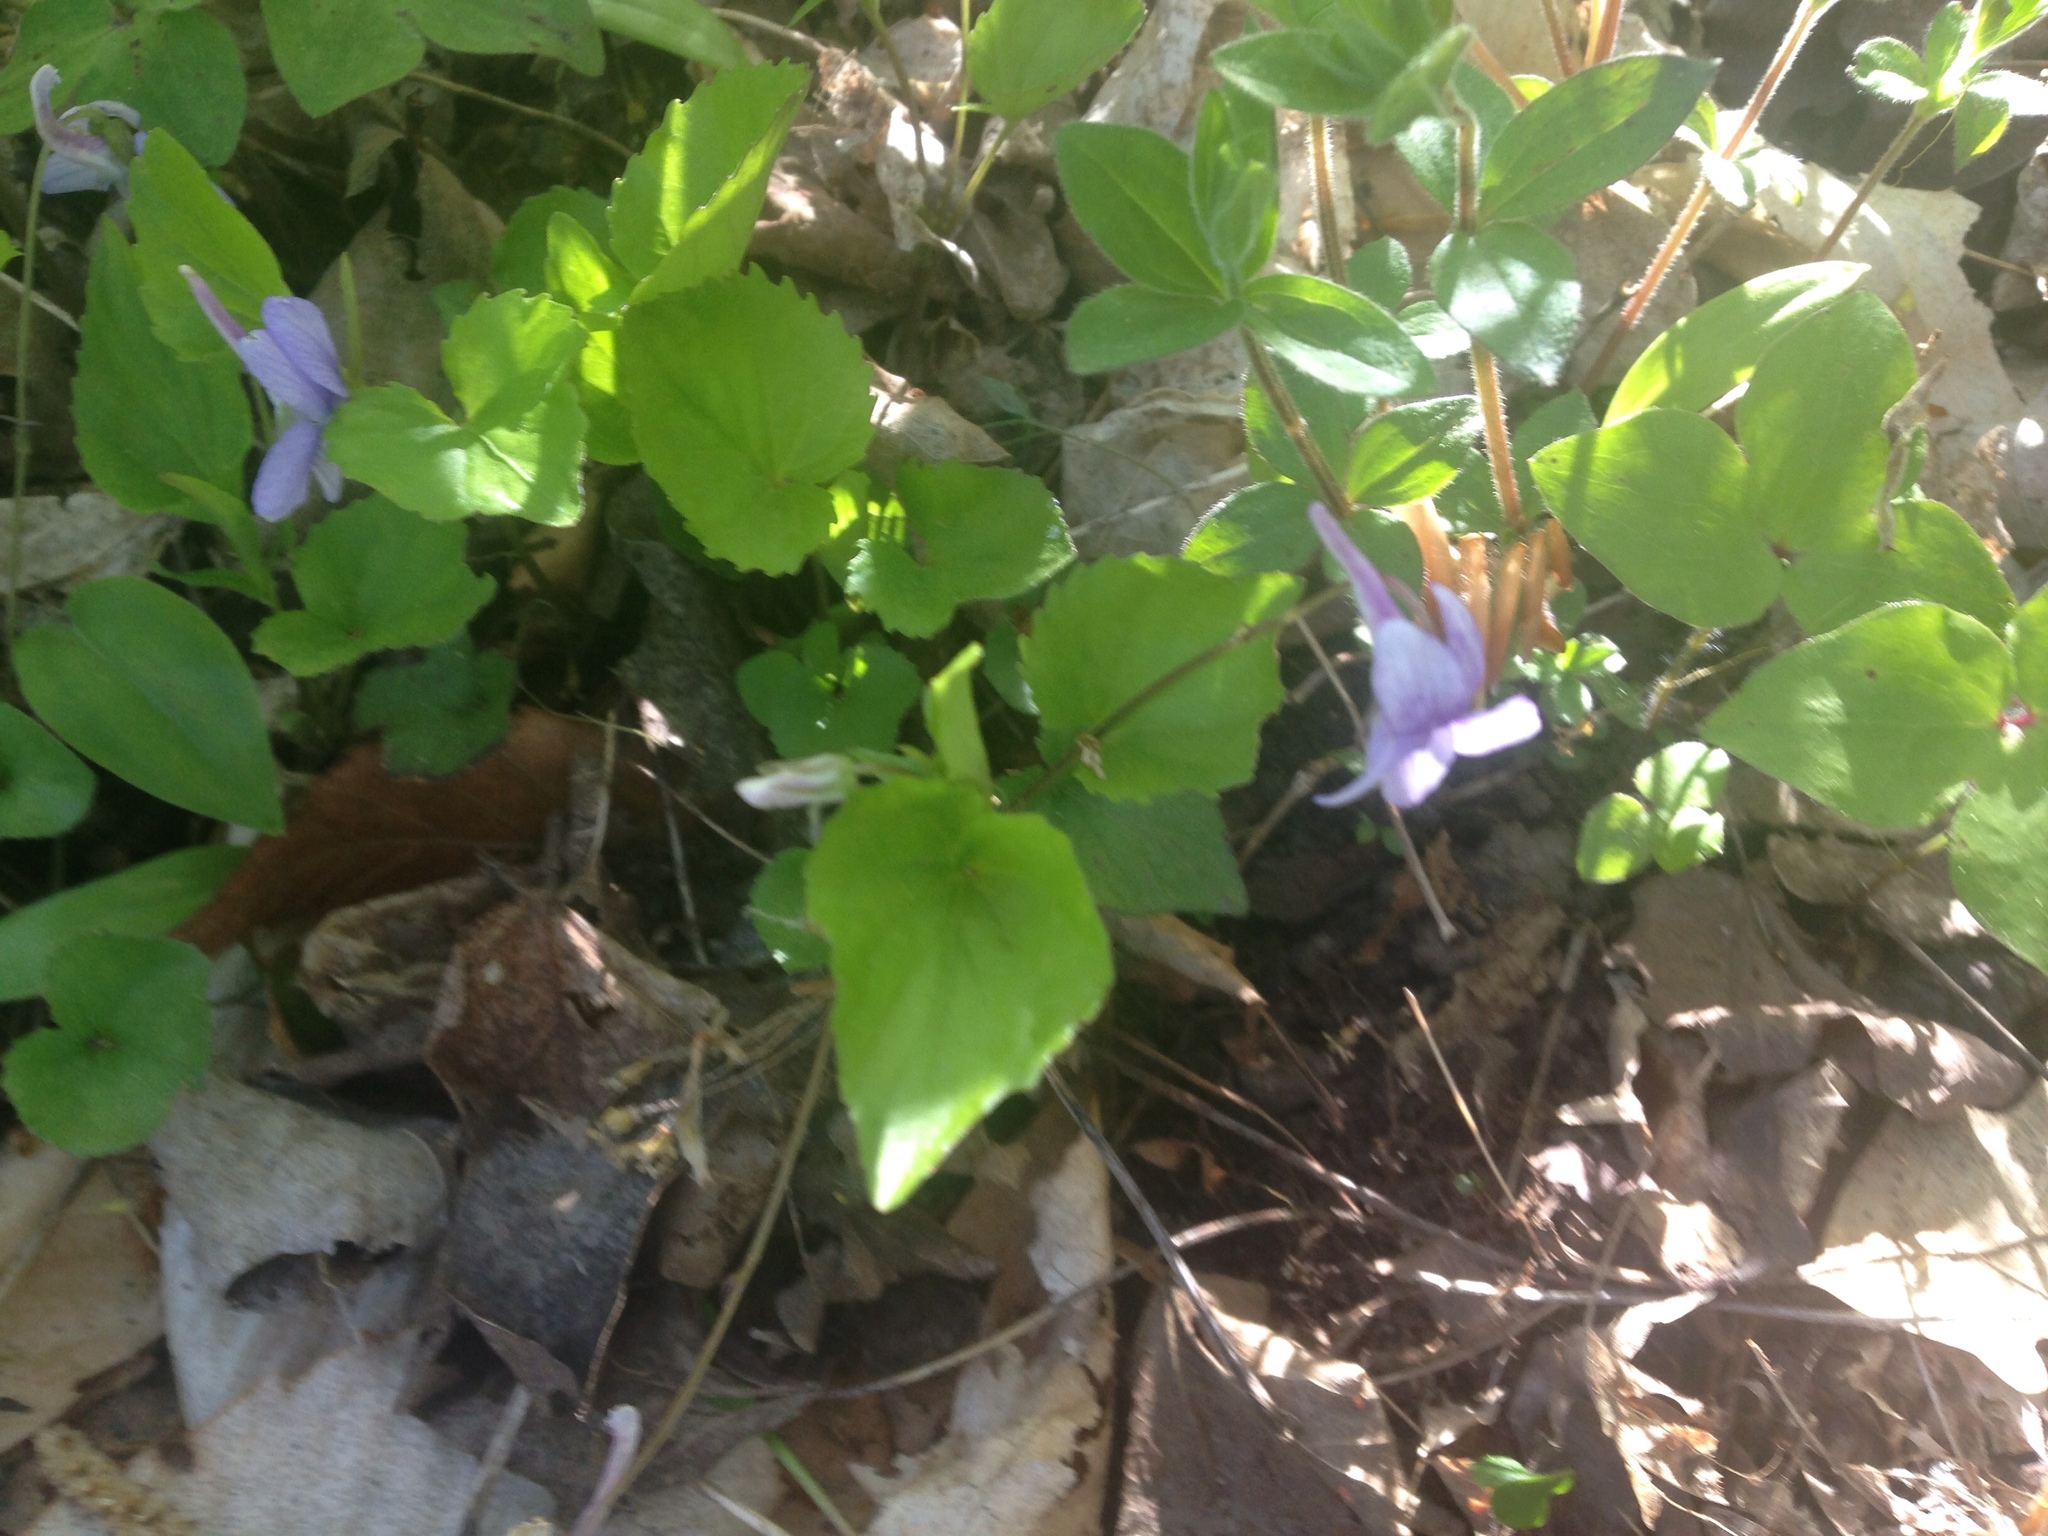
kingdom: Plantae
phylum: Tracheophyta
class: Magnoliopsida
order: Malpighiales
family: Violaceae
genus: Viola
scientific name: Viola rostrata
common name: Long-spur violet
